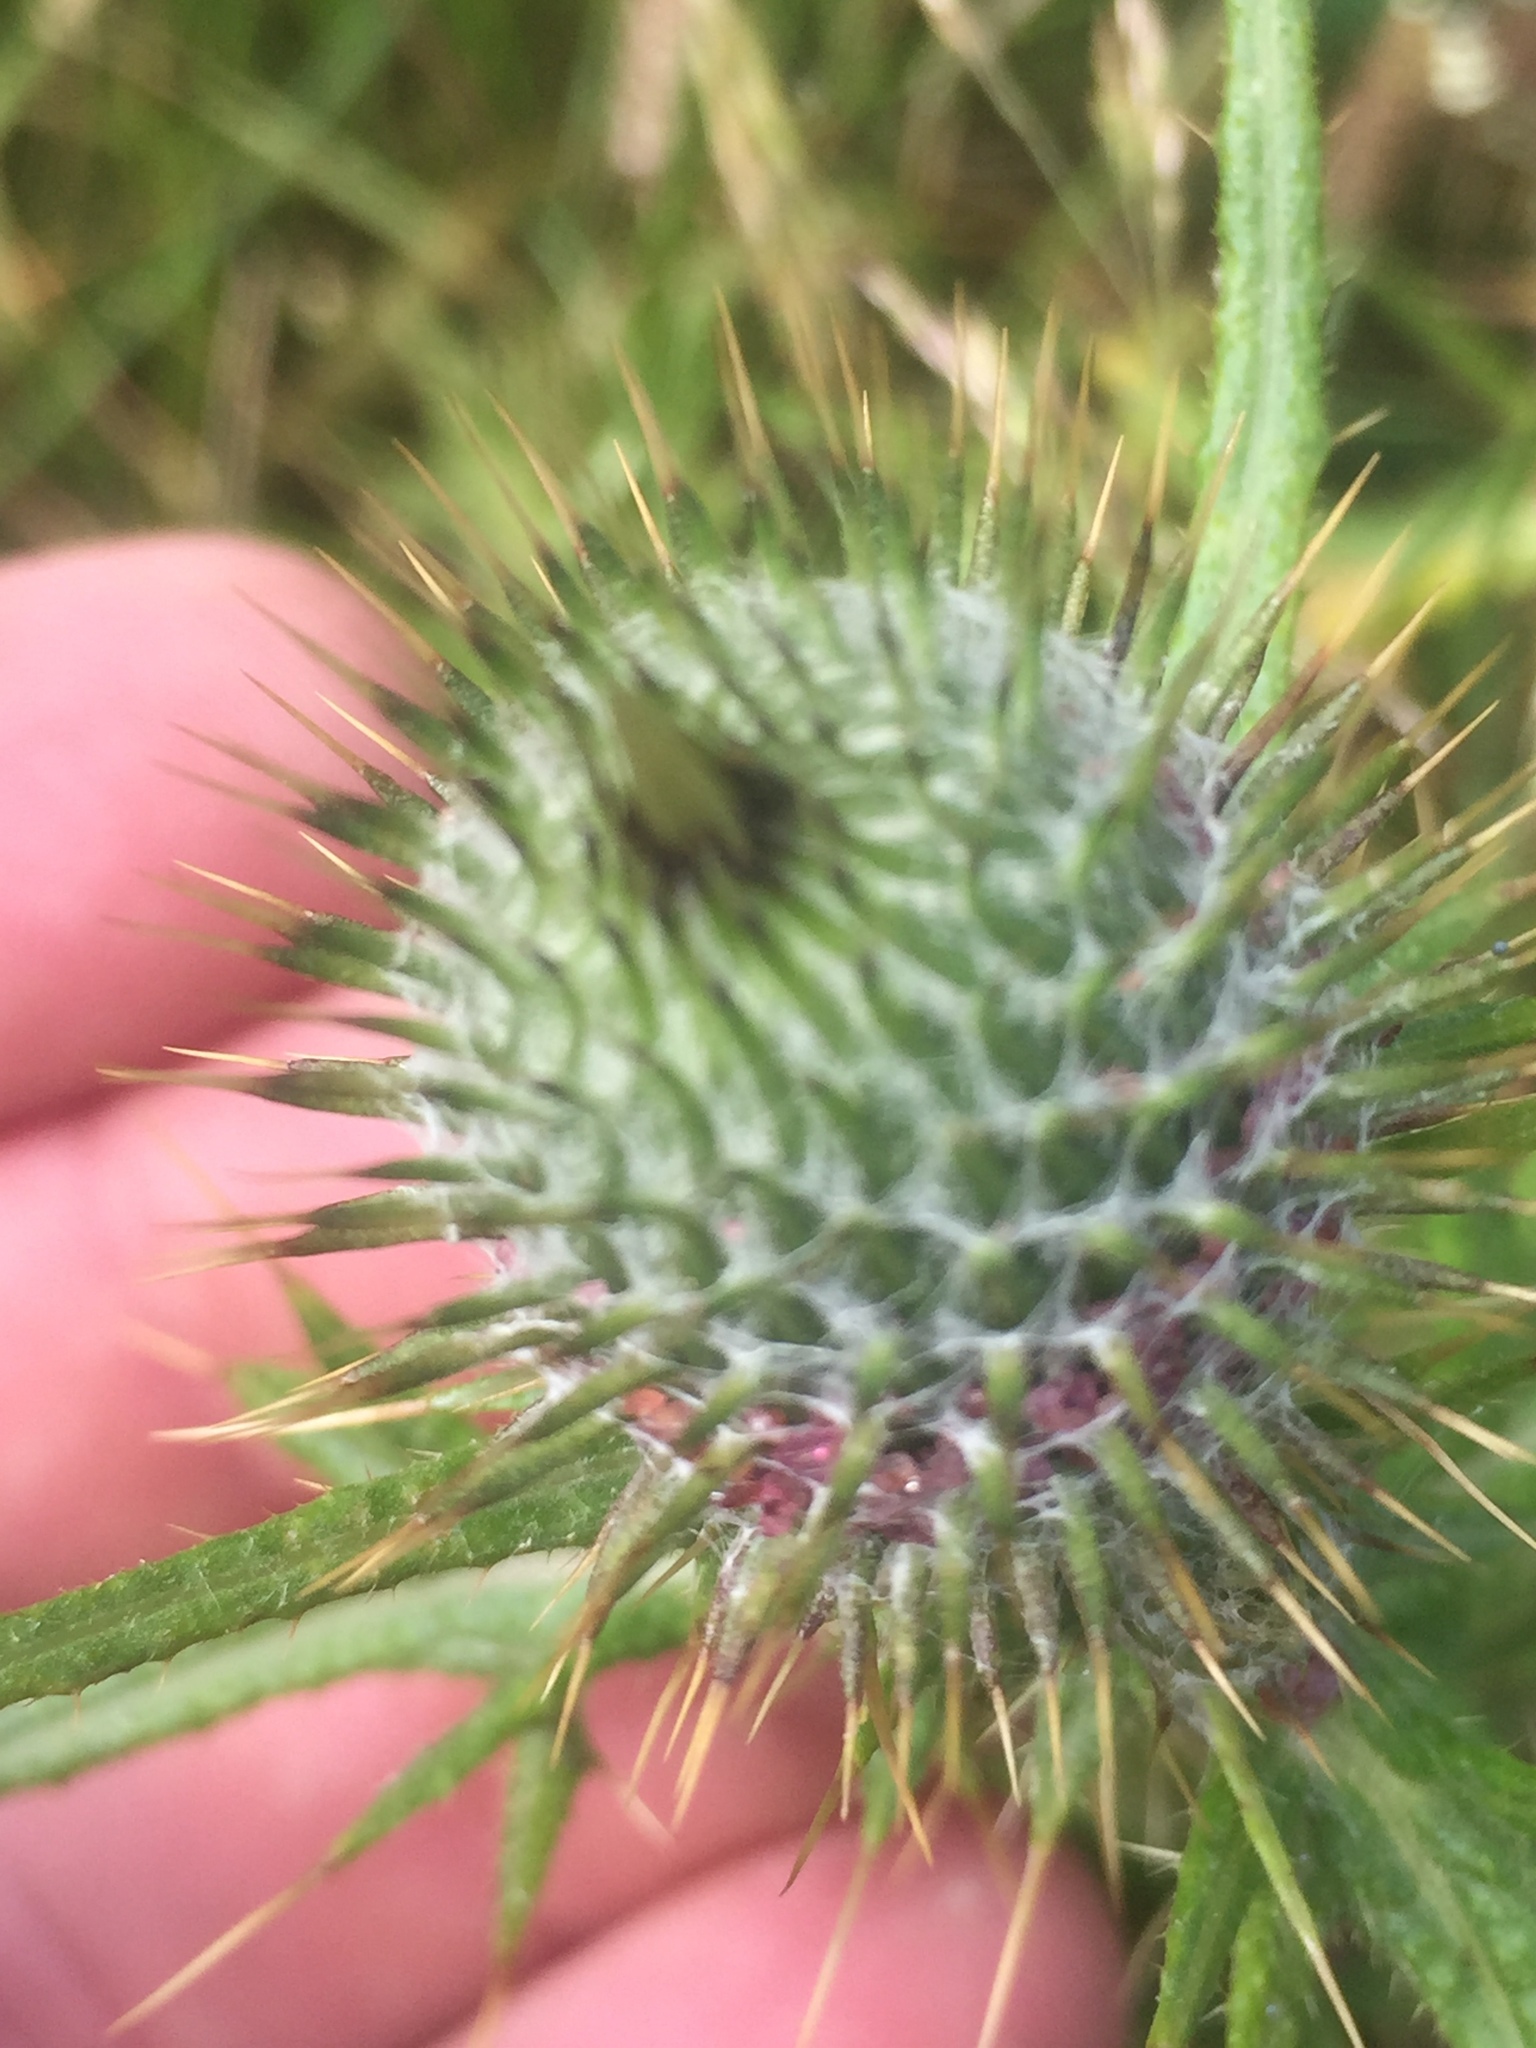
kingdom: Plantae
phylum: Tracheophyta
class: Magnoliopsida
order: Asterales
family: Asteraceae
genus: Cirsium
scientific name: Cirsium vulgare
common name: Bull thistle
